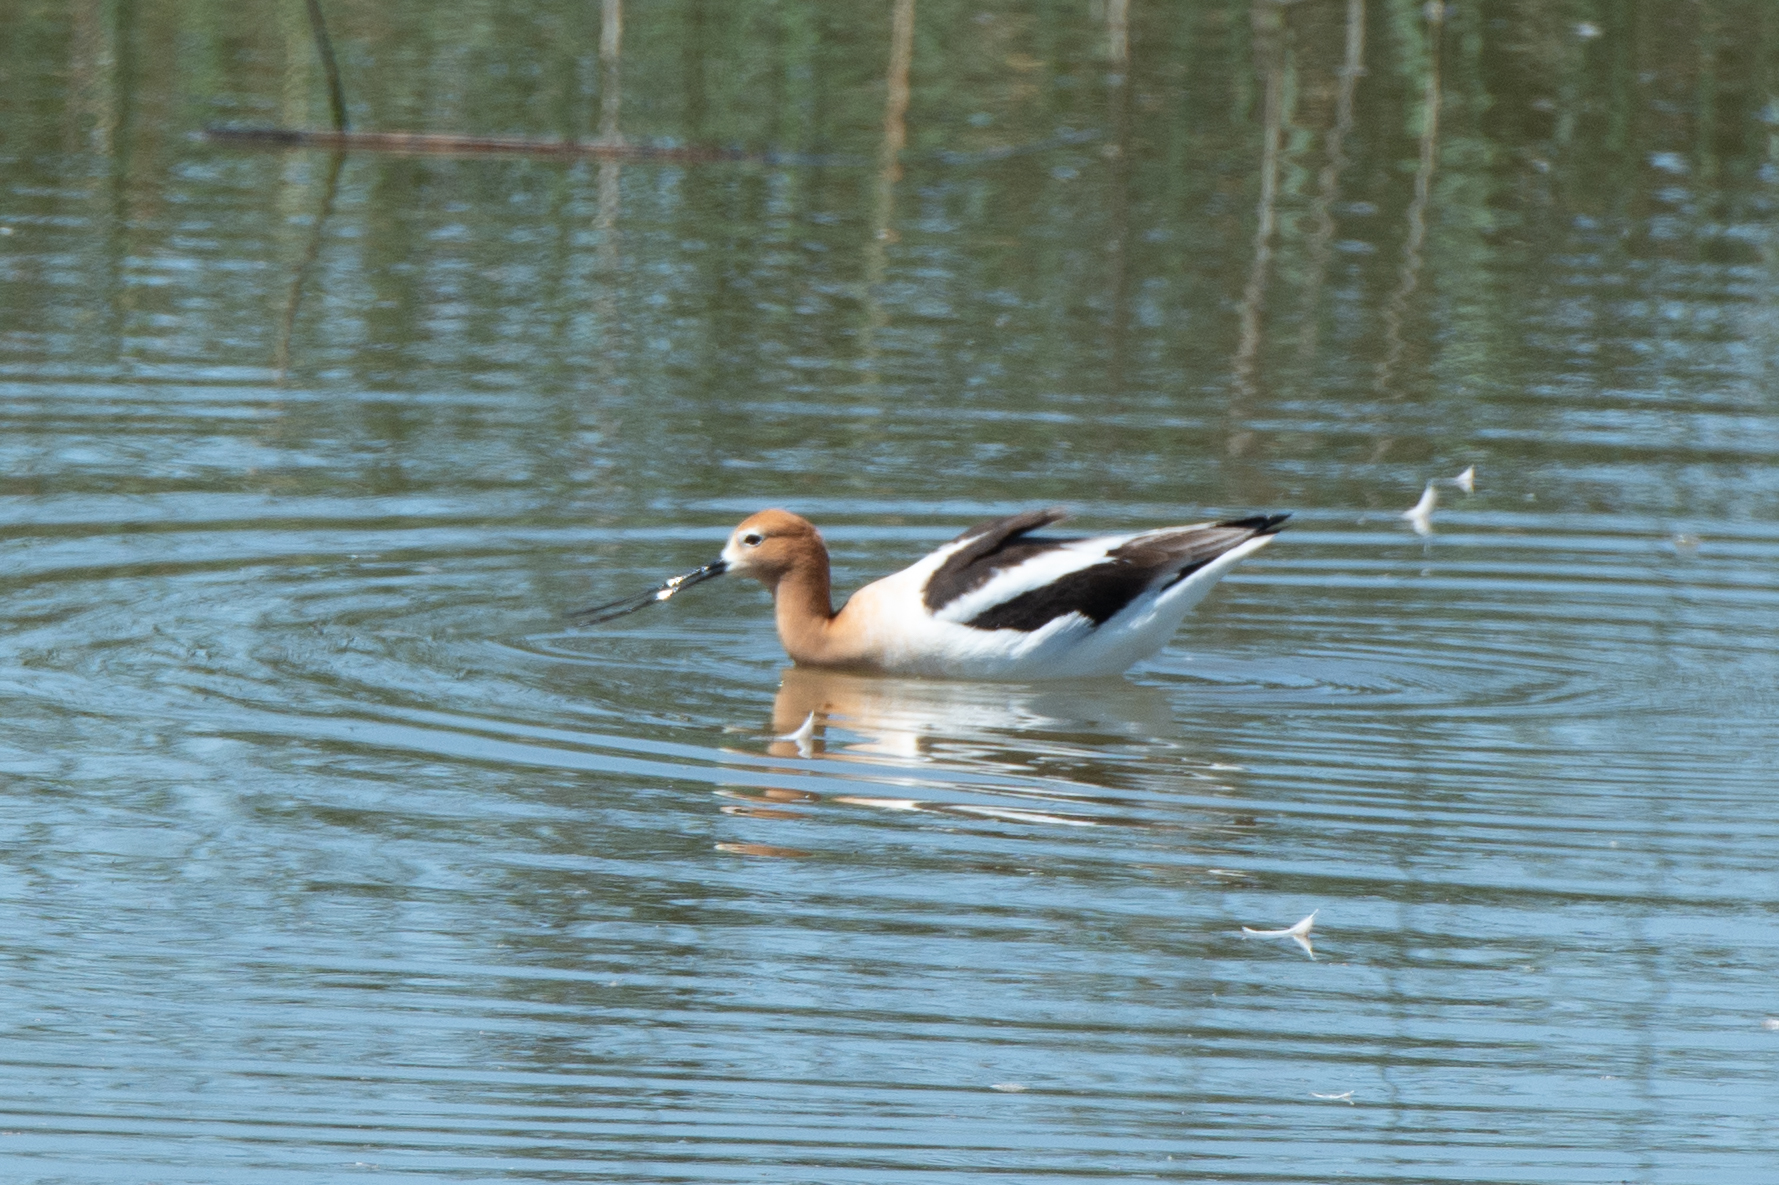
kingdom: Animalia
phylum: Chordata
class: Aves
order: Charadriiformes
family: Recurvirostridae
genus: Recurvirostra
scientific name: Recurvirostra americana
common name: American avocet
